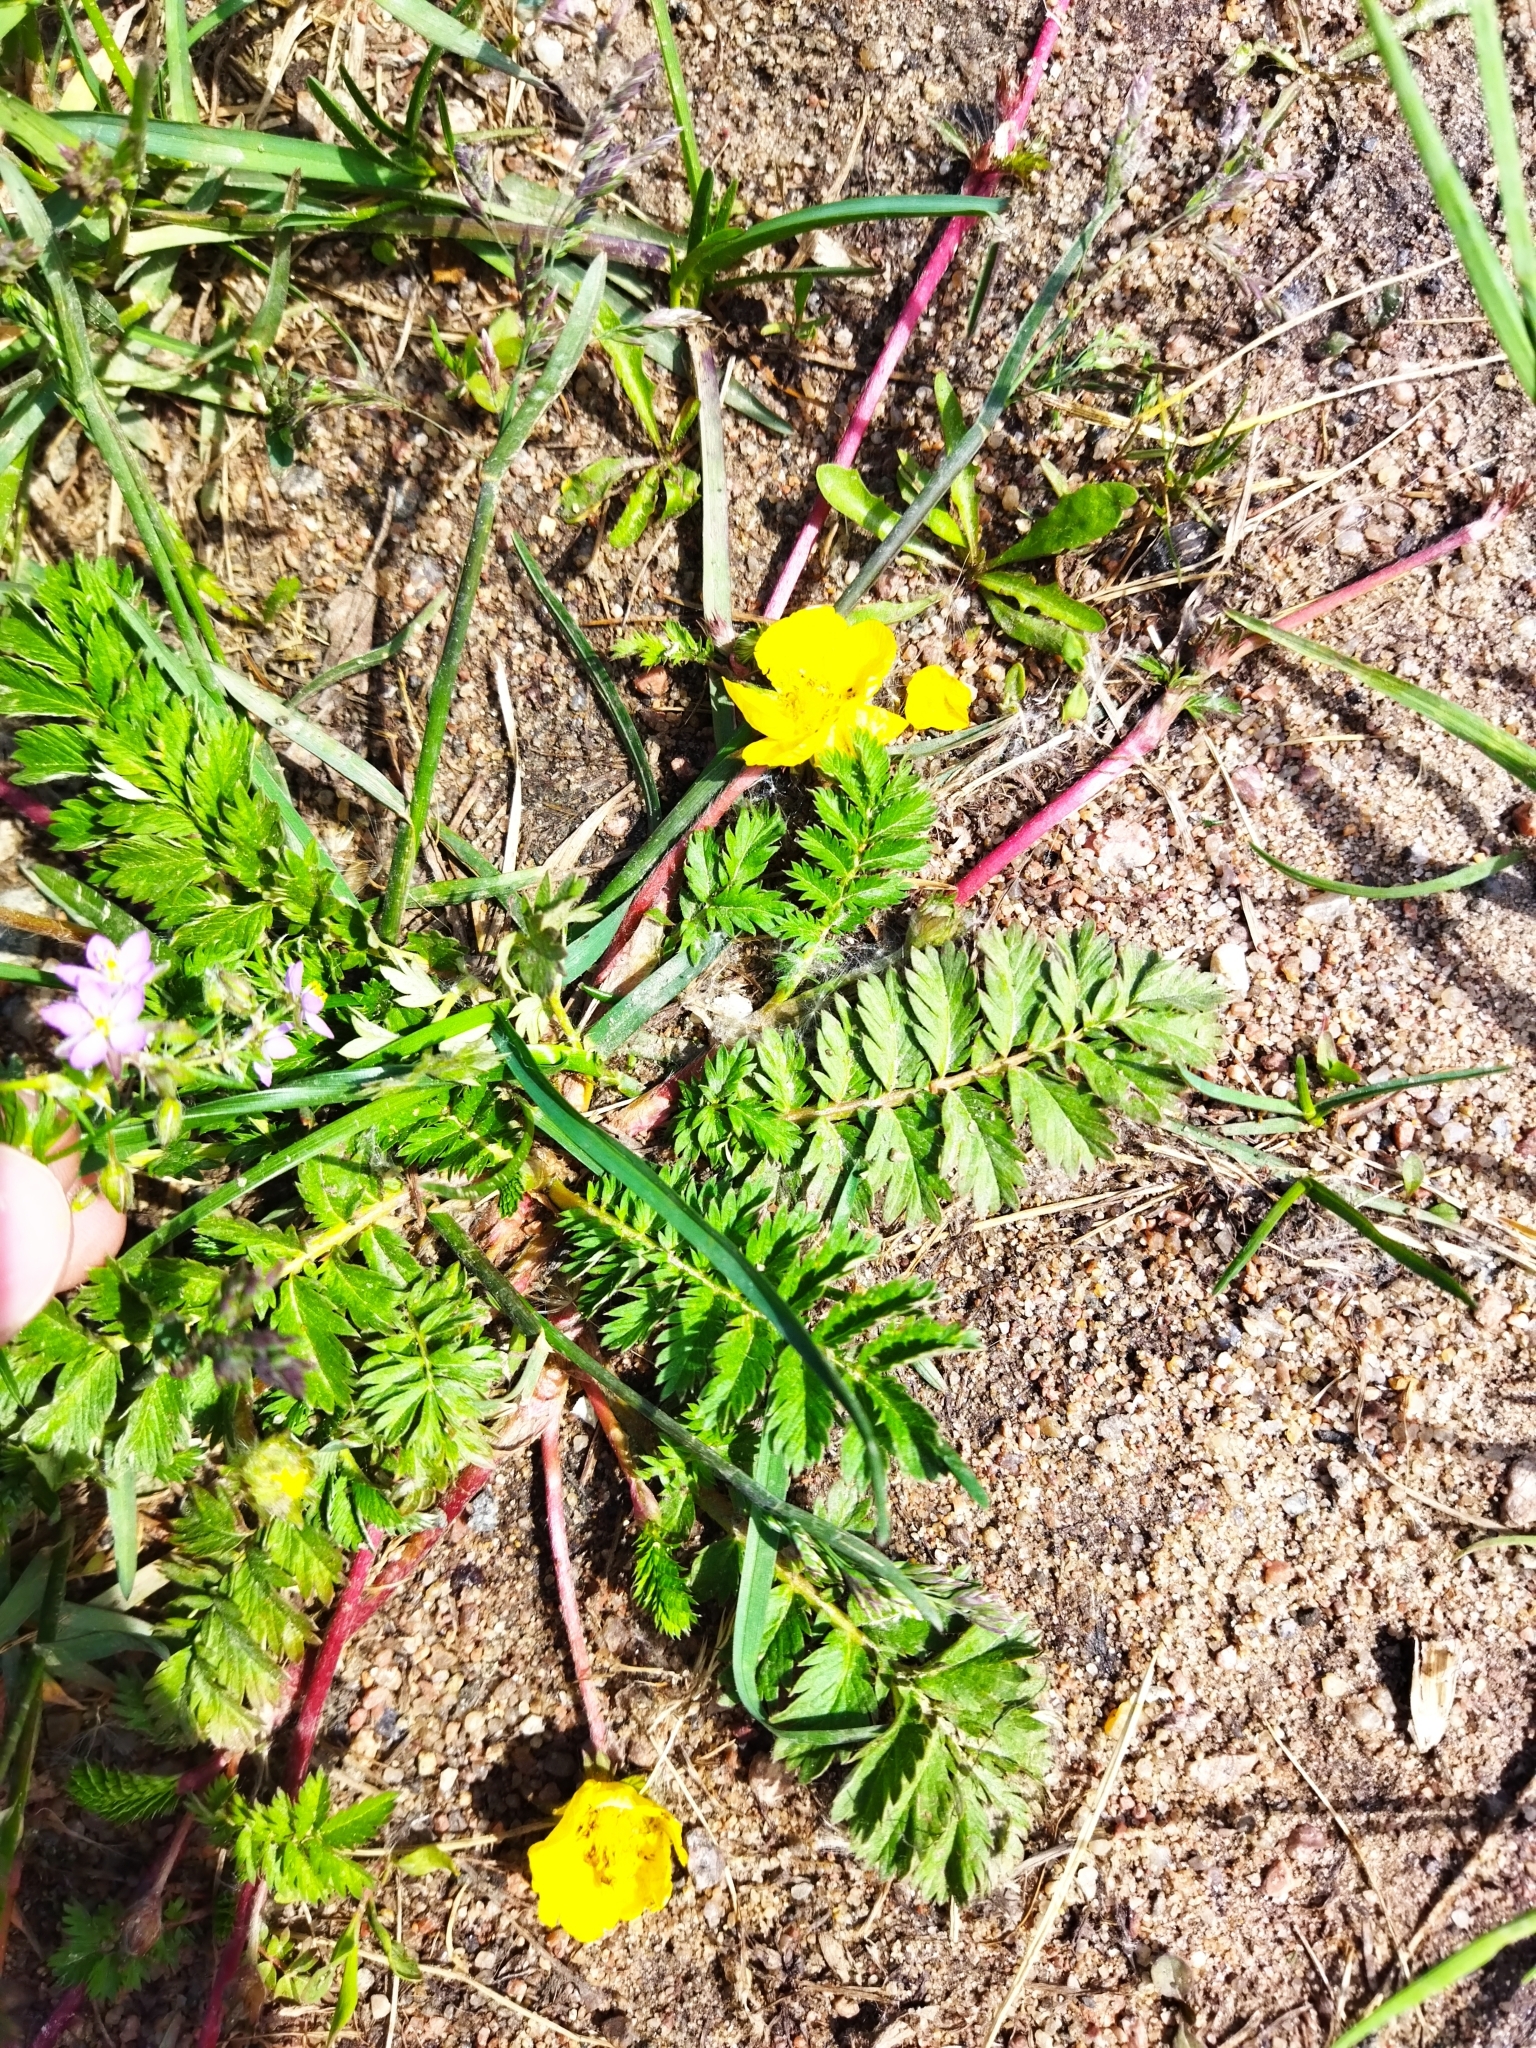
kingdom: Plantae
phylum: Tracheophyta
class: Magnoliopsida
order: Rosales
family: Rosaceae
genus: Argentina
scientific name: Argentina anserina
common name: Common silverweed
